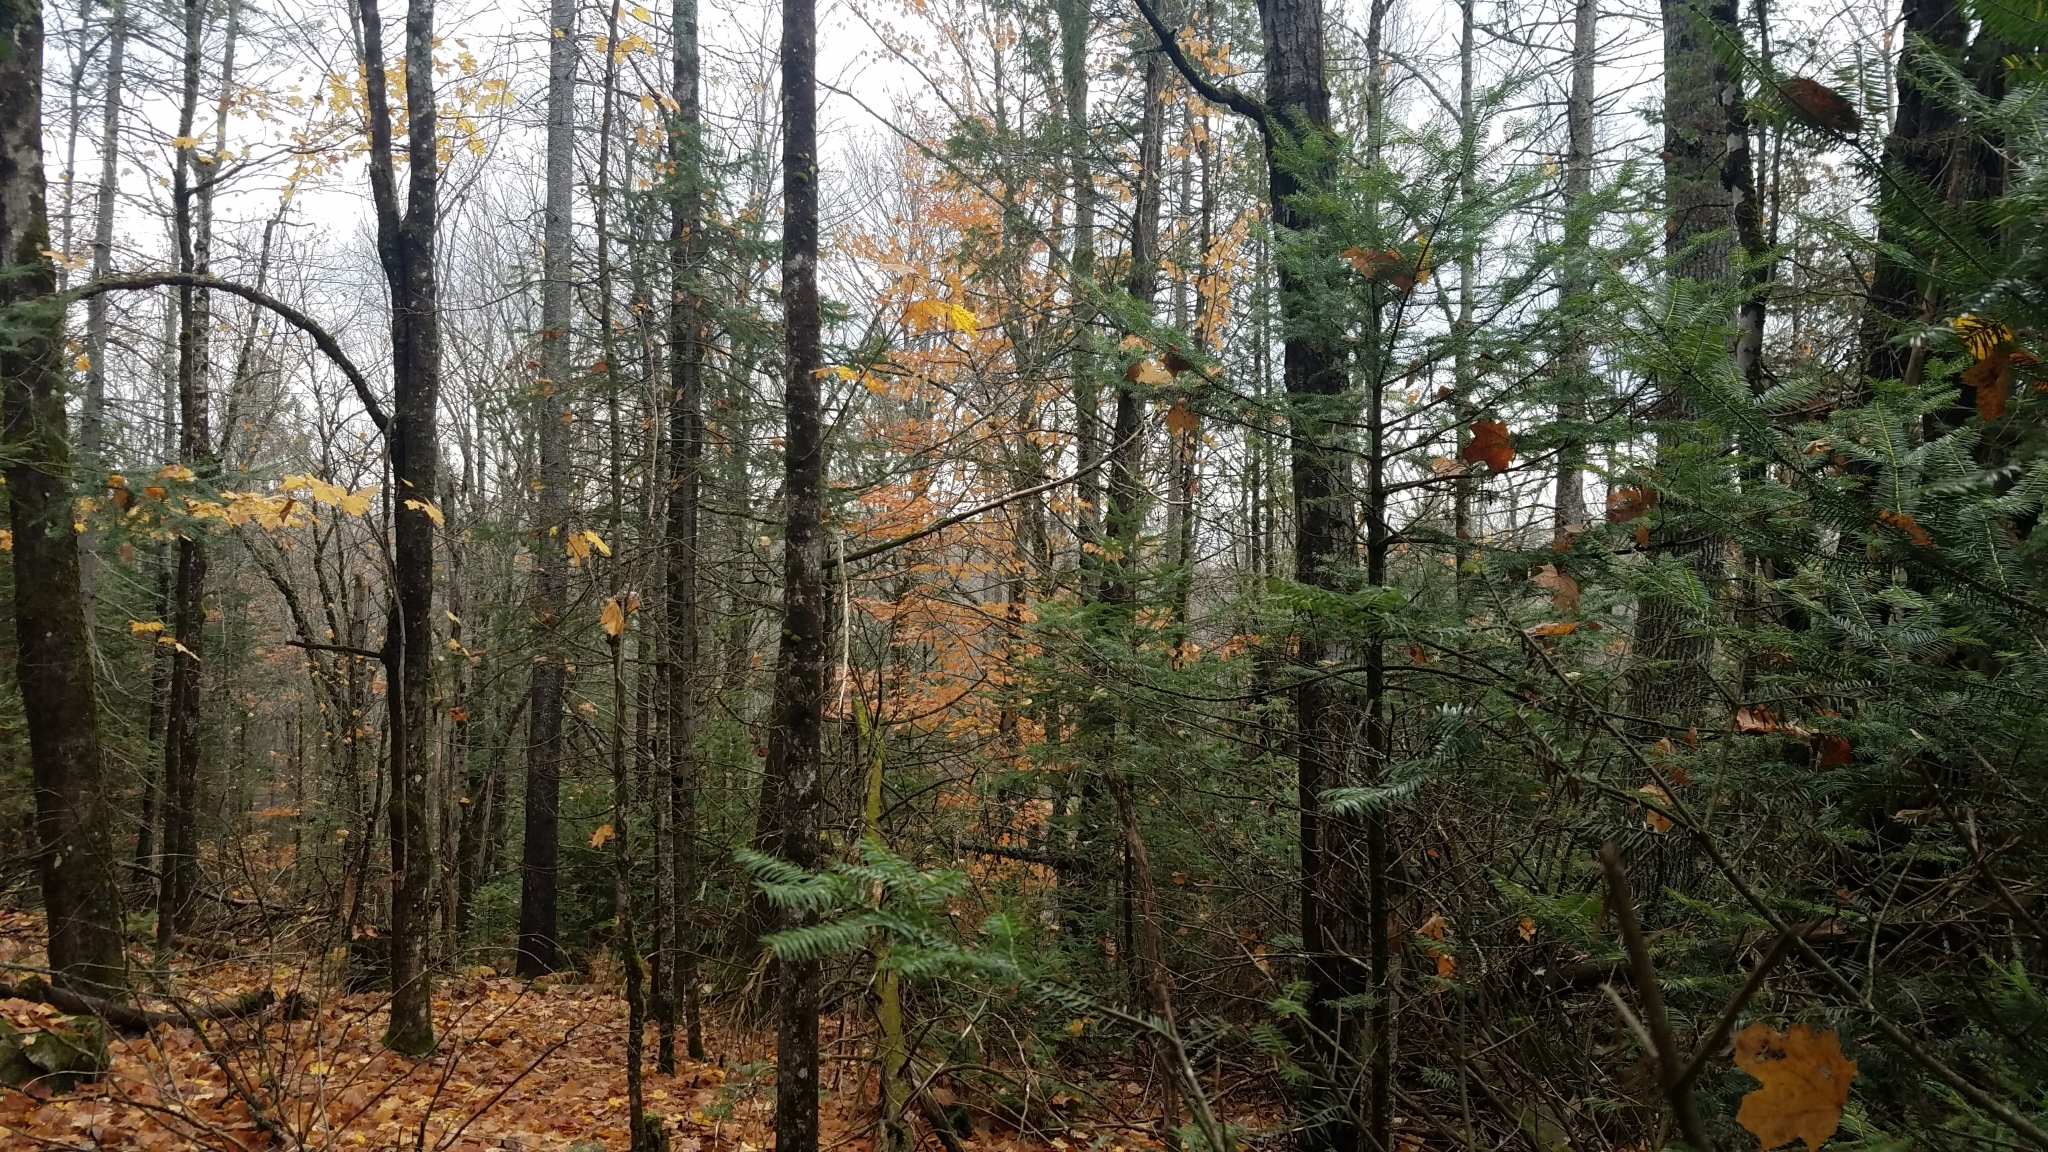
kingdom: Plantae
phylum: Tracheophyta
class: Pinopsida
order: Pinales
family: Pinaceae
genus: Abies
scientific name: Abies balsamea
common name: Balsam fir
